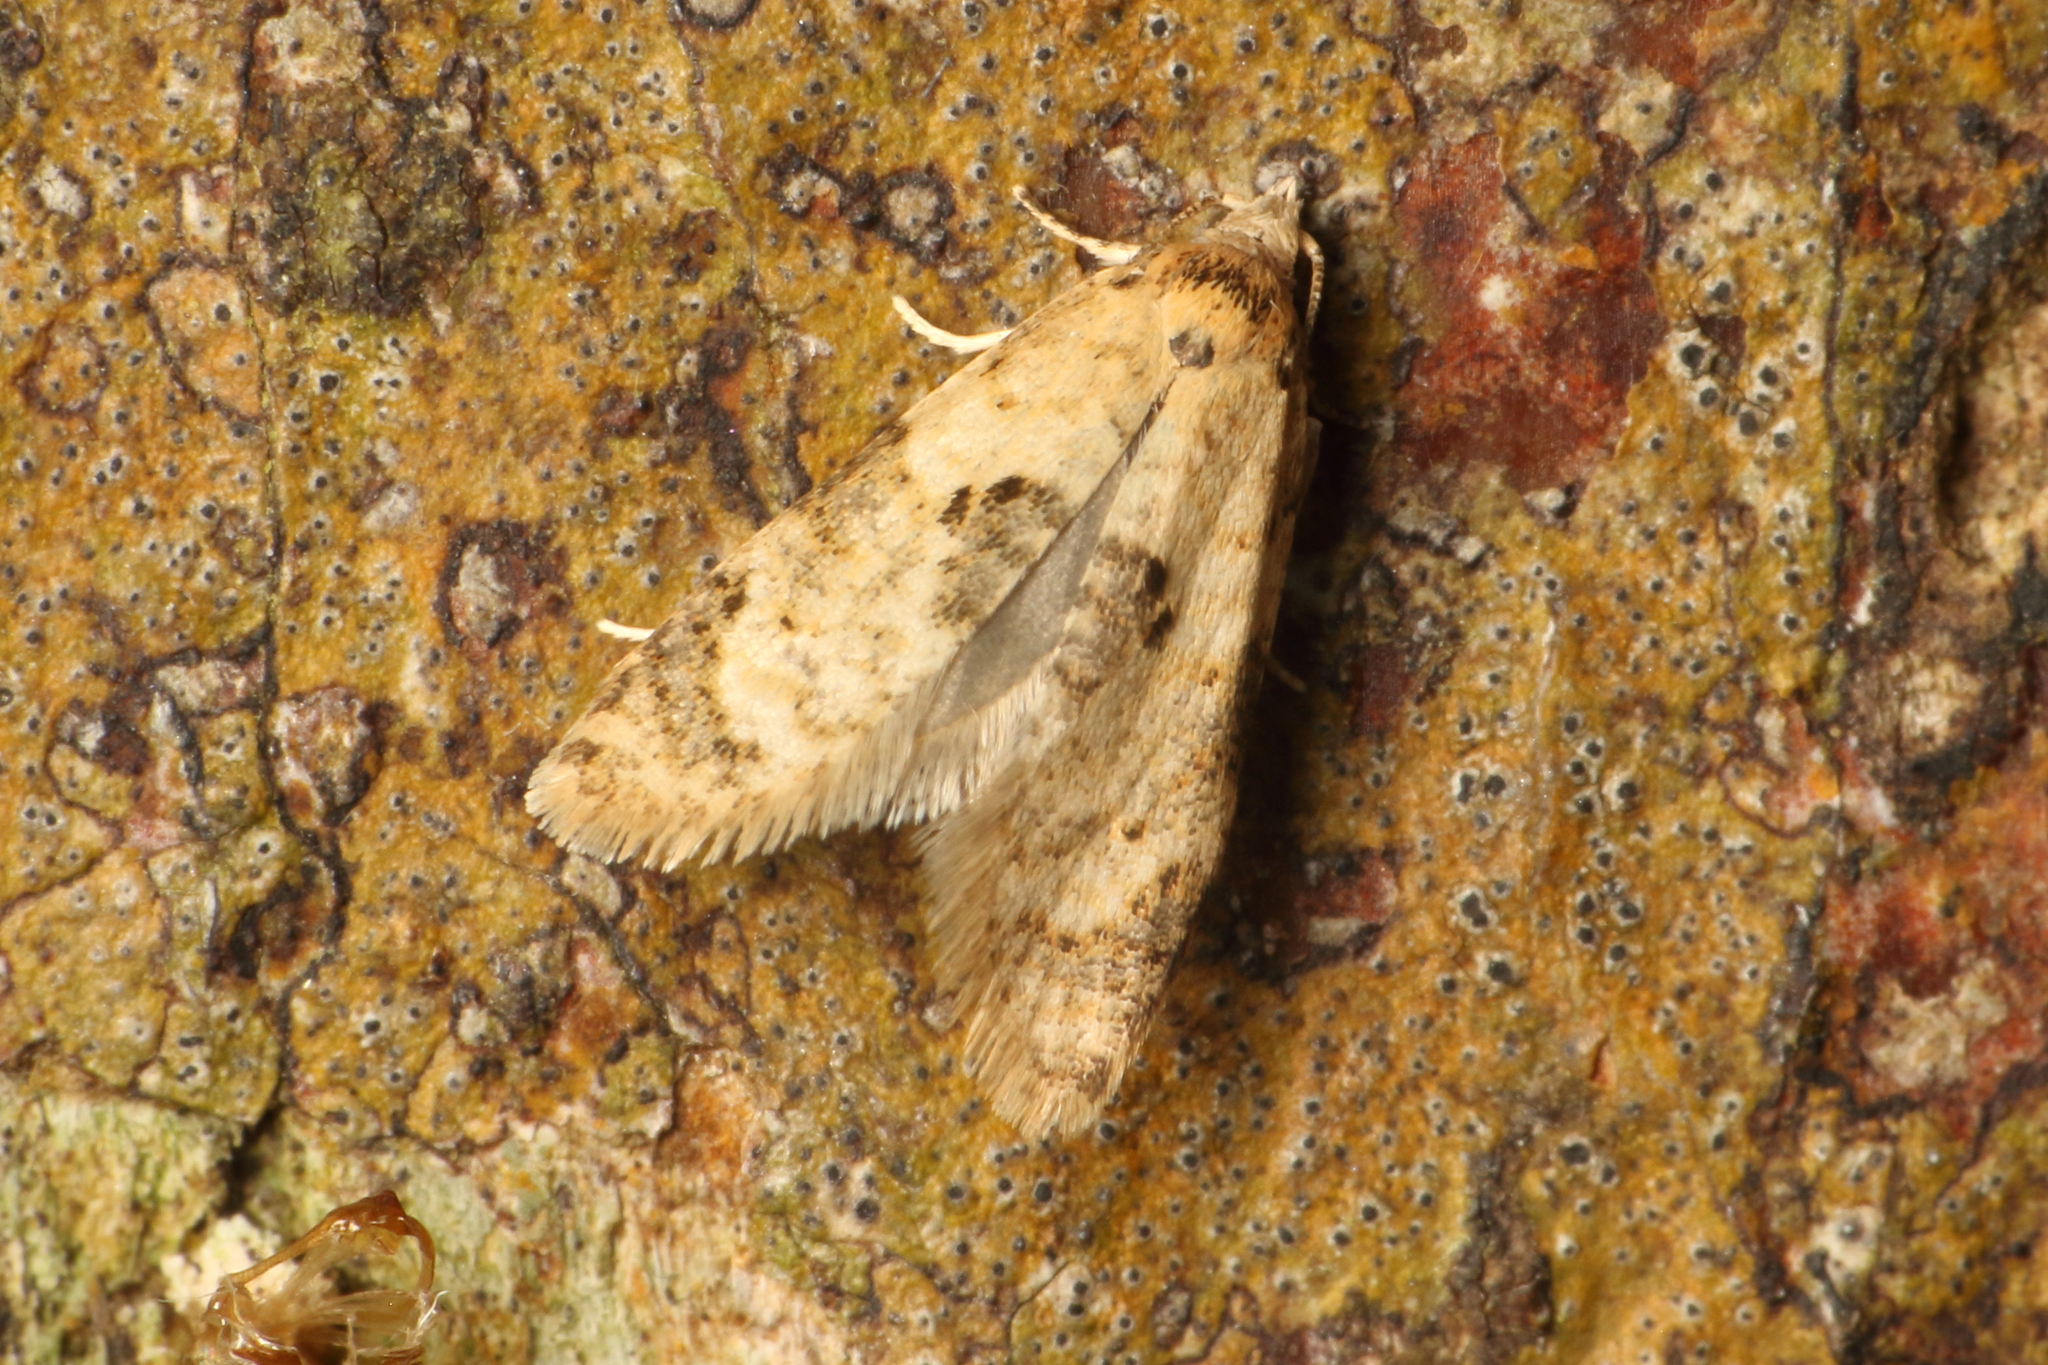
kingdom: Animalia
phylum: Arthropoda
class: Insecta
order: Lepidoptera
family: Tortricidae
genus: Dipterina
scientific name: Dipterina imbriferana
